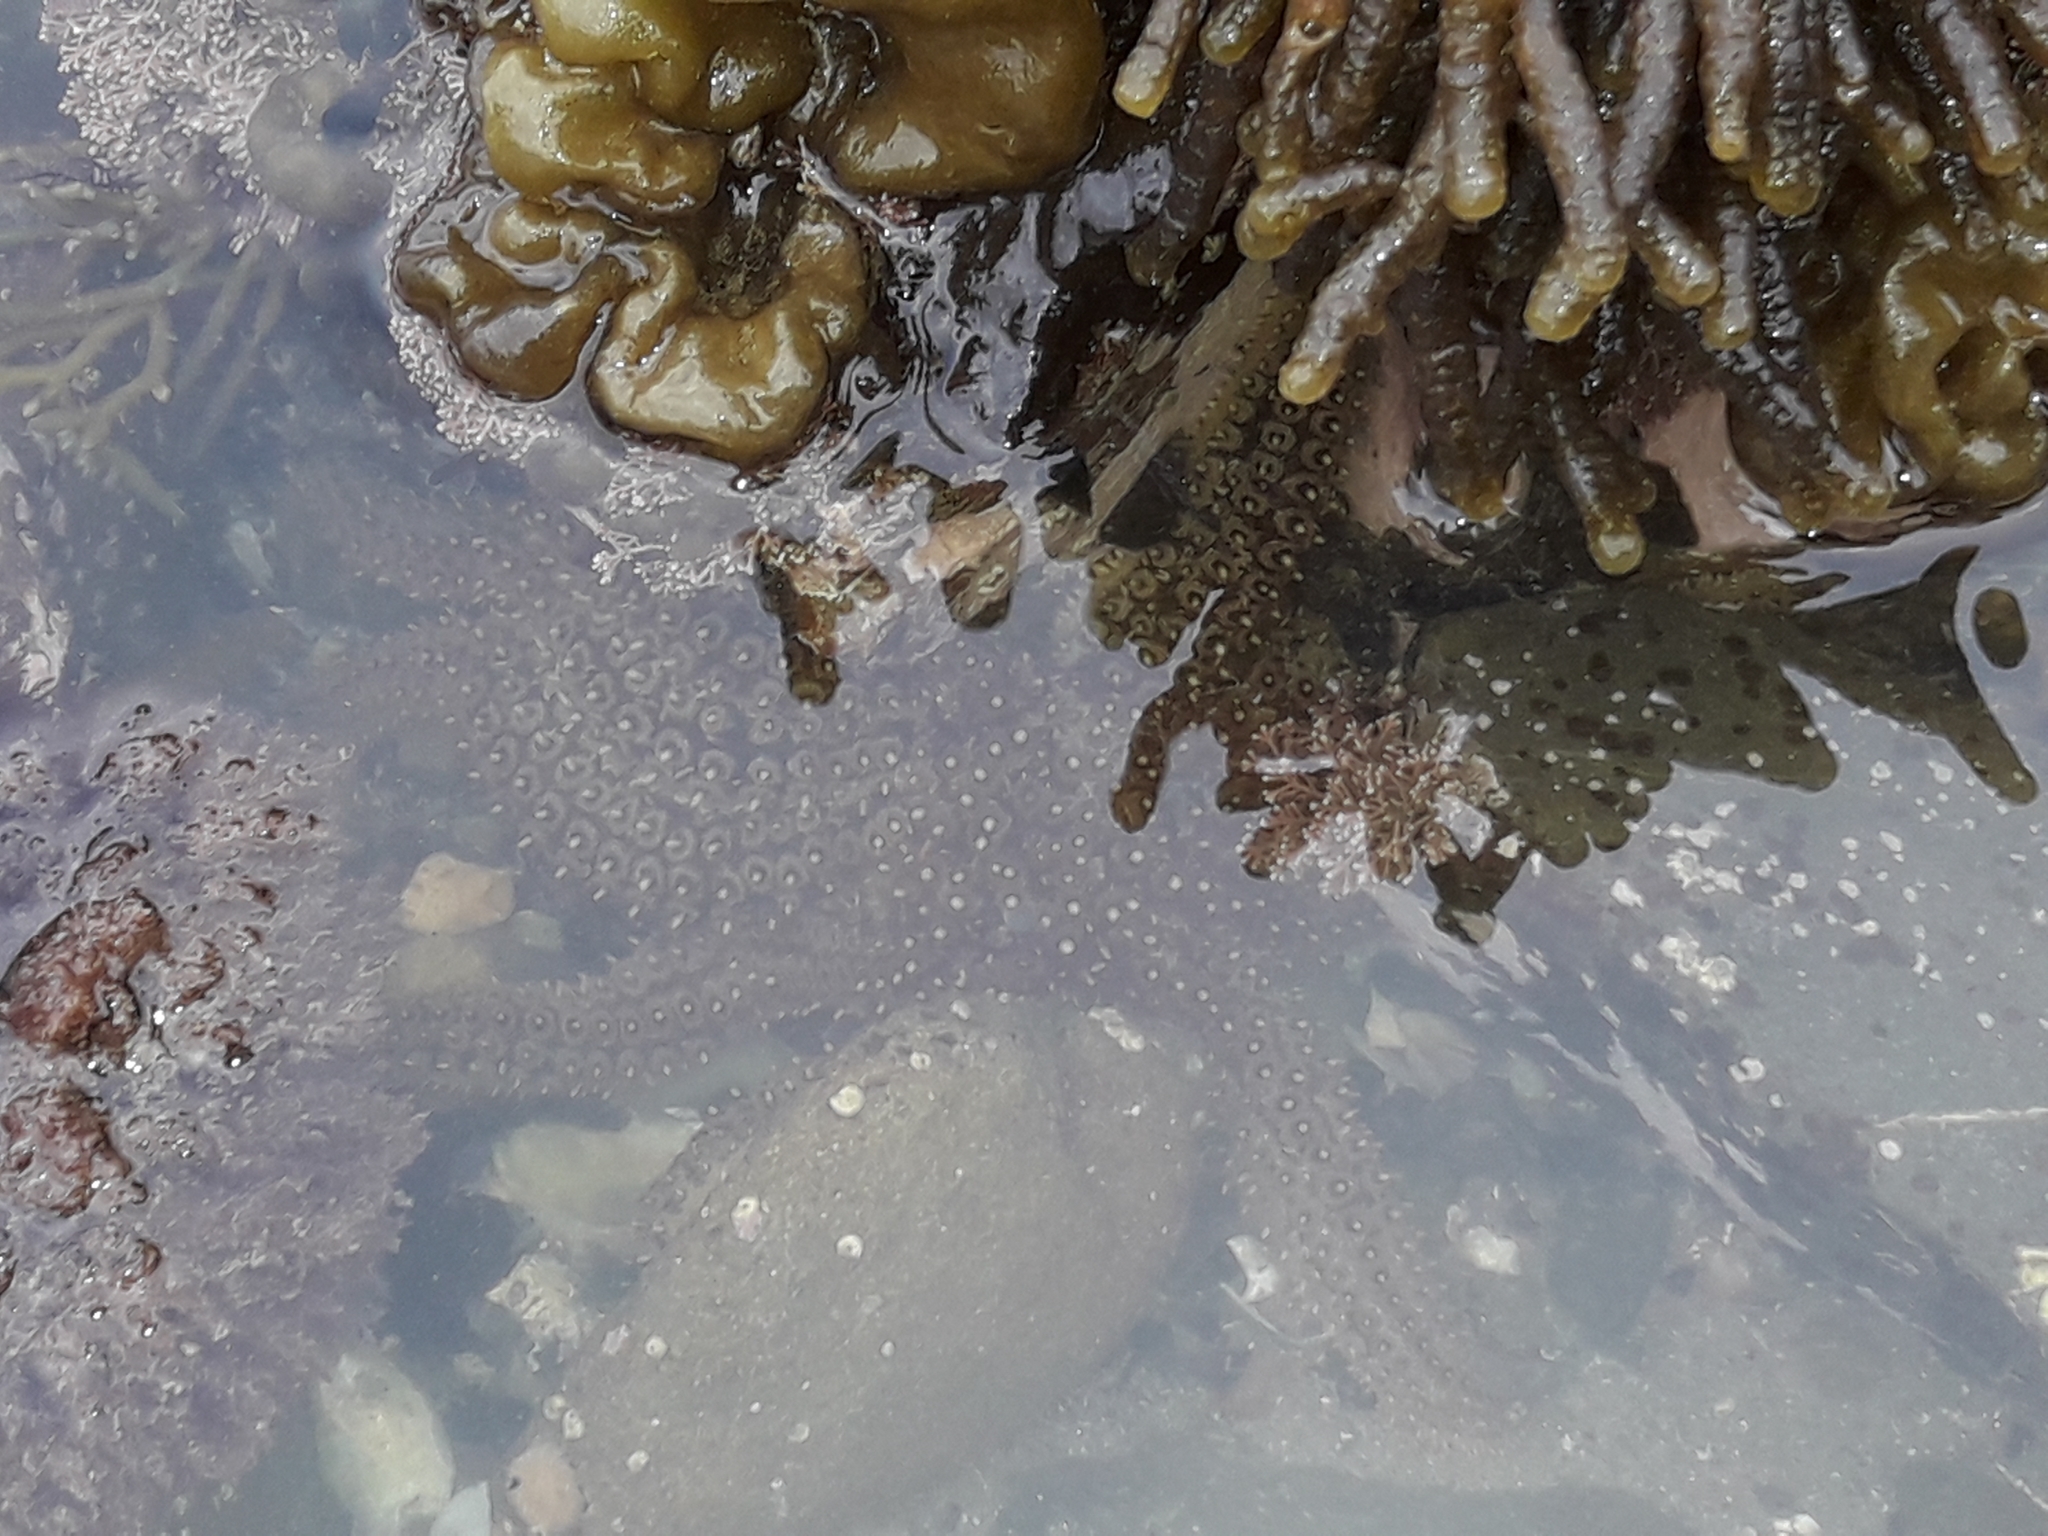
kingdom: Animalia
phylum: Echinodermata
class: Asteroidea
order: Forcipulatida
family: Asteriidae
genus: Coscinasterias
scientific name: Coscinasterias muricata
